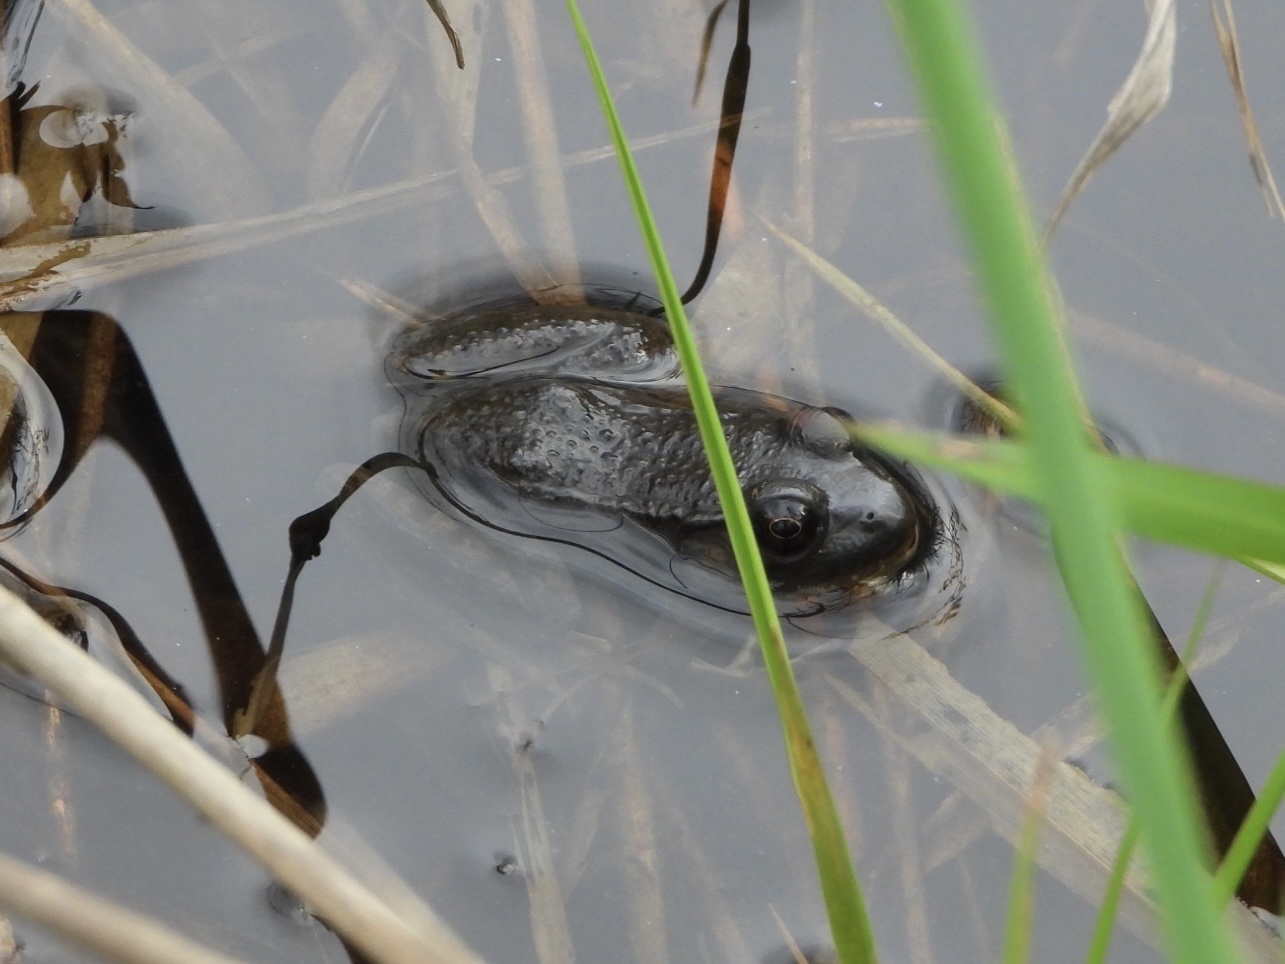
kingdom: Animalia
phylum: Chordata
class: Amphibia
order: Anura
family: Ranidae
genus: Lithobates
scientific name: Lithobates clamitans
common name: Green frog
